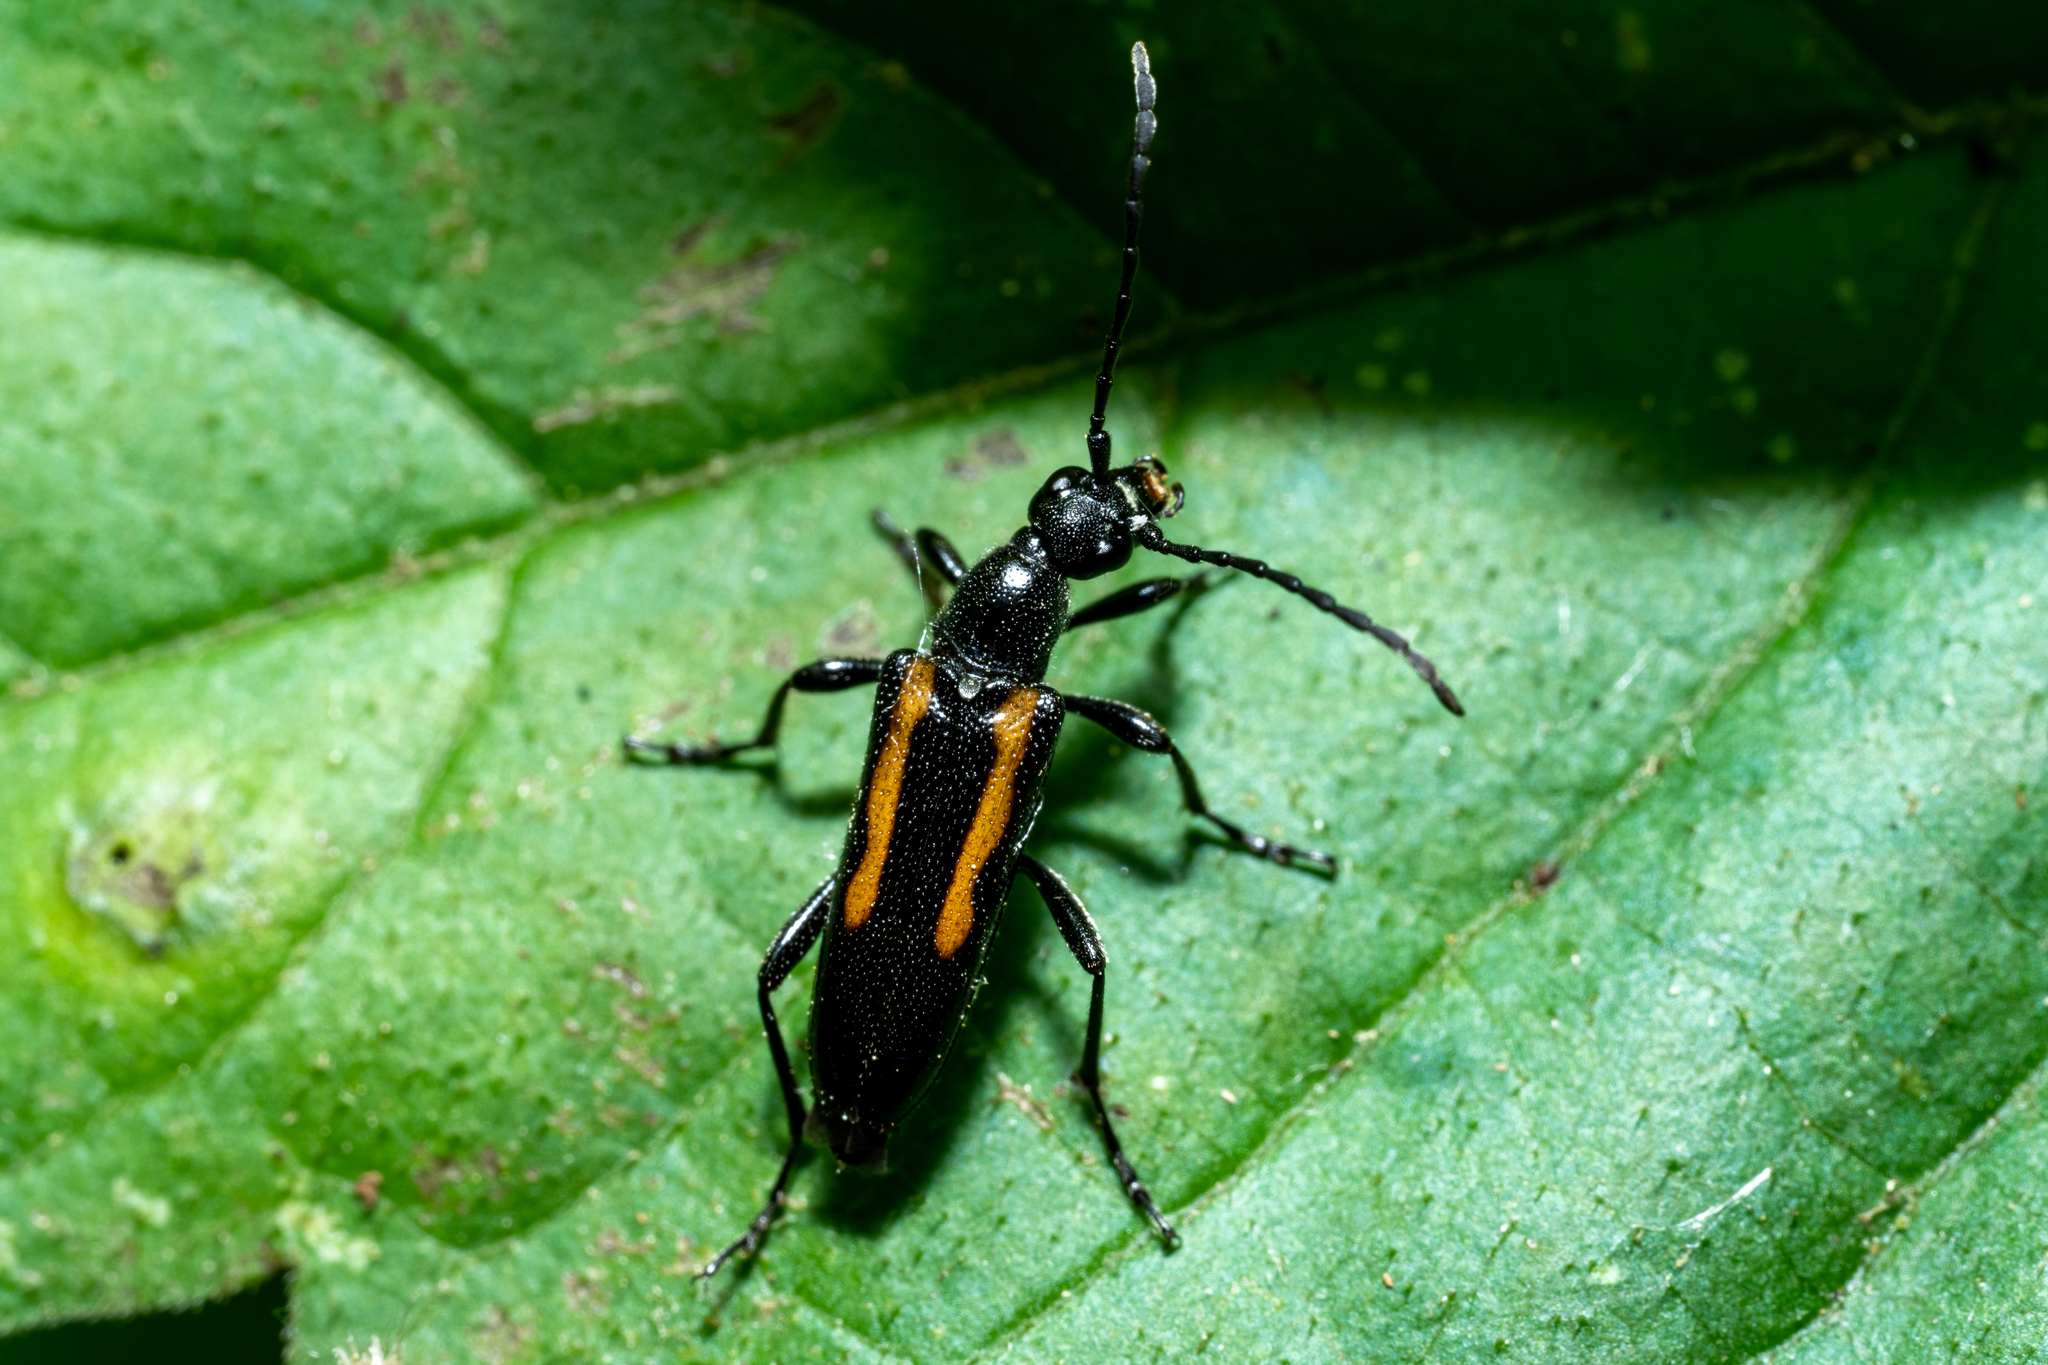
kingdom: Animalia
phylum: Arthropoda
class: Insecta
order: Coleoptera
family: Cerambycidae
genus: Strangalepta
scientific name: Strangalepta abbreviata
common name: Strangalepta flower longhorn beetle
